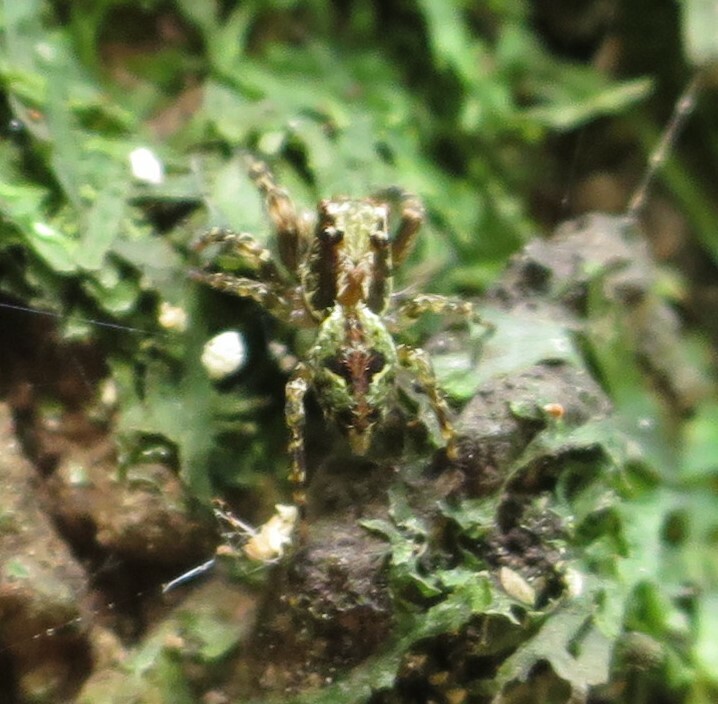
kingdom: Animalia
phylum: Arthropoda
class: Arachnida
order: Araneae
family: Salticidae
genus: Hinewaia
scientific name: Hinewaia embolica
